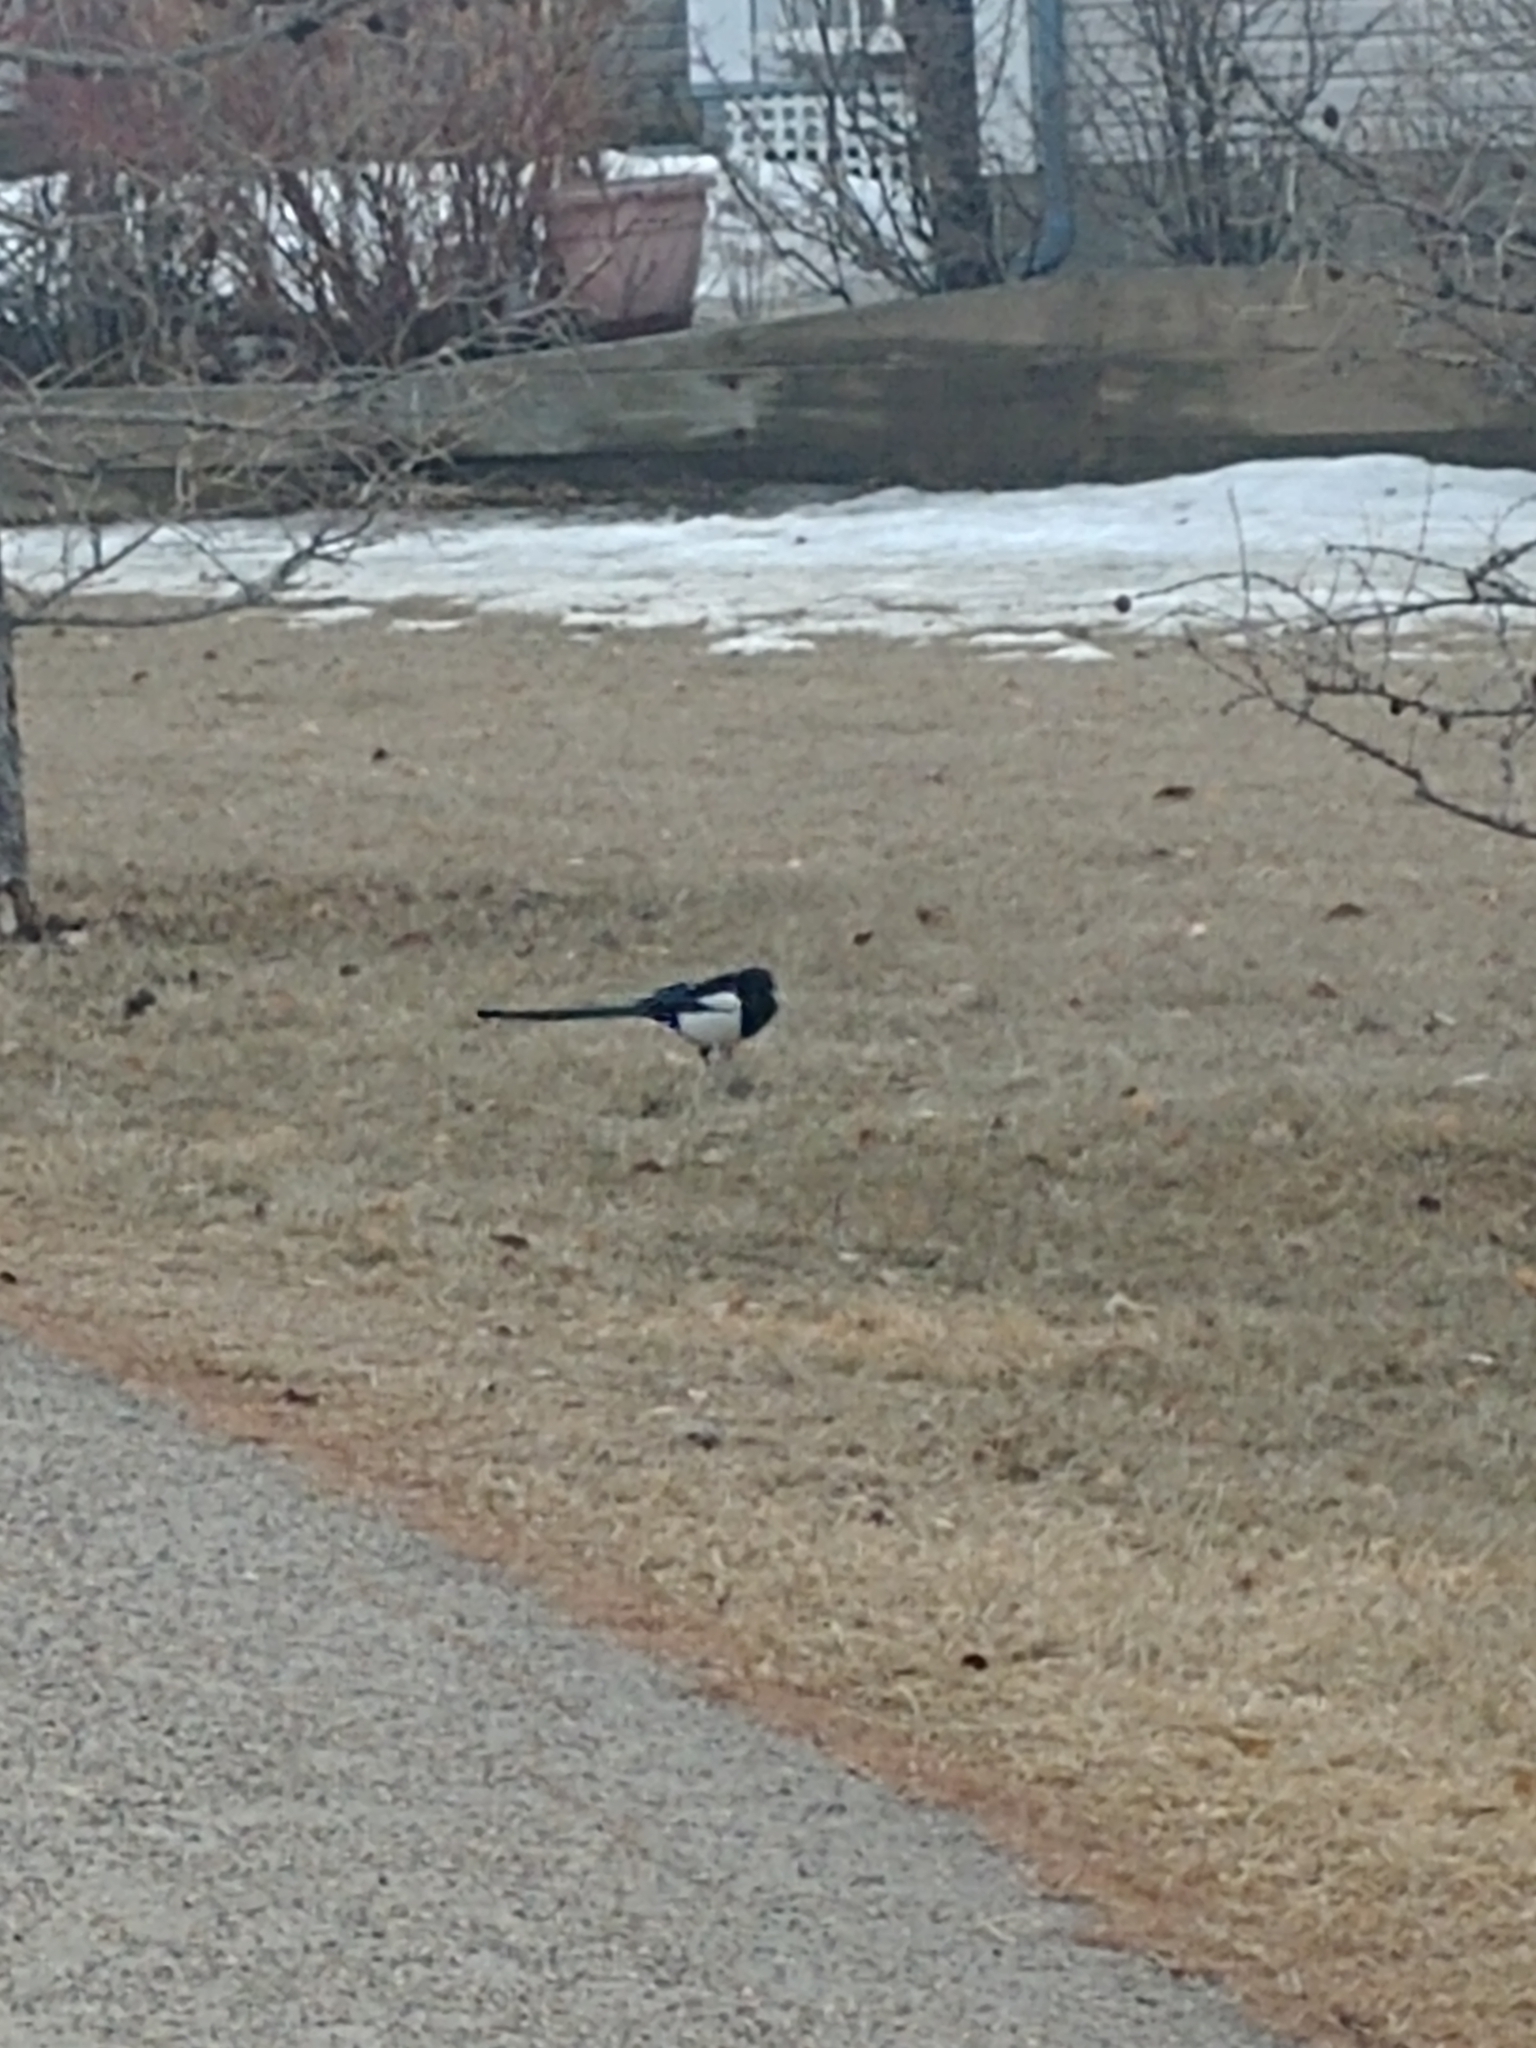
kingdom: Animalia
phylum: Chordata
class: Aves
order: Passeriformes
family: Corvidae
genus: Pica
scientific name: Pica hudsonia
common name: Black-billed magpie
